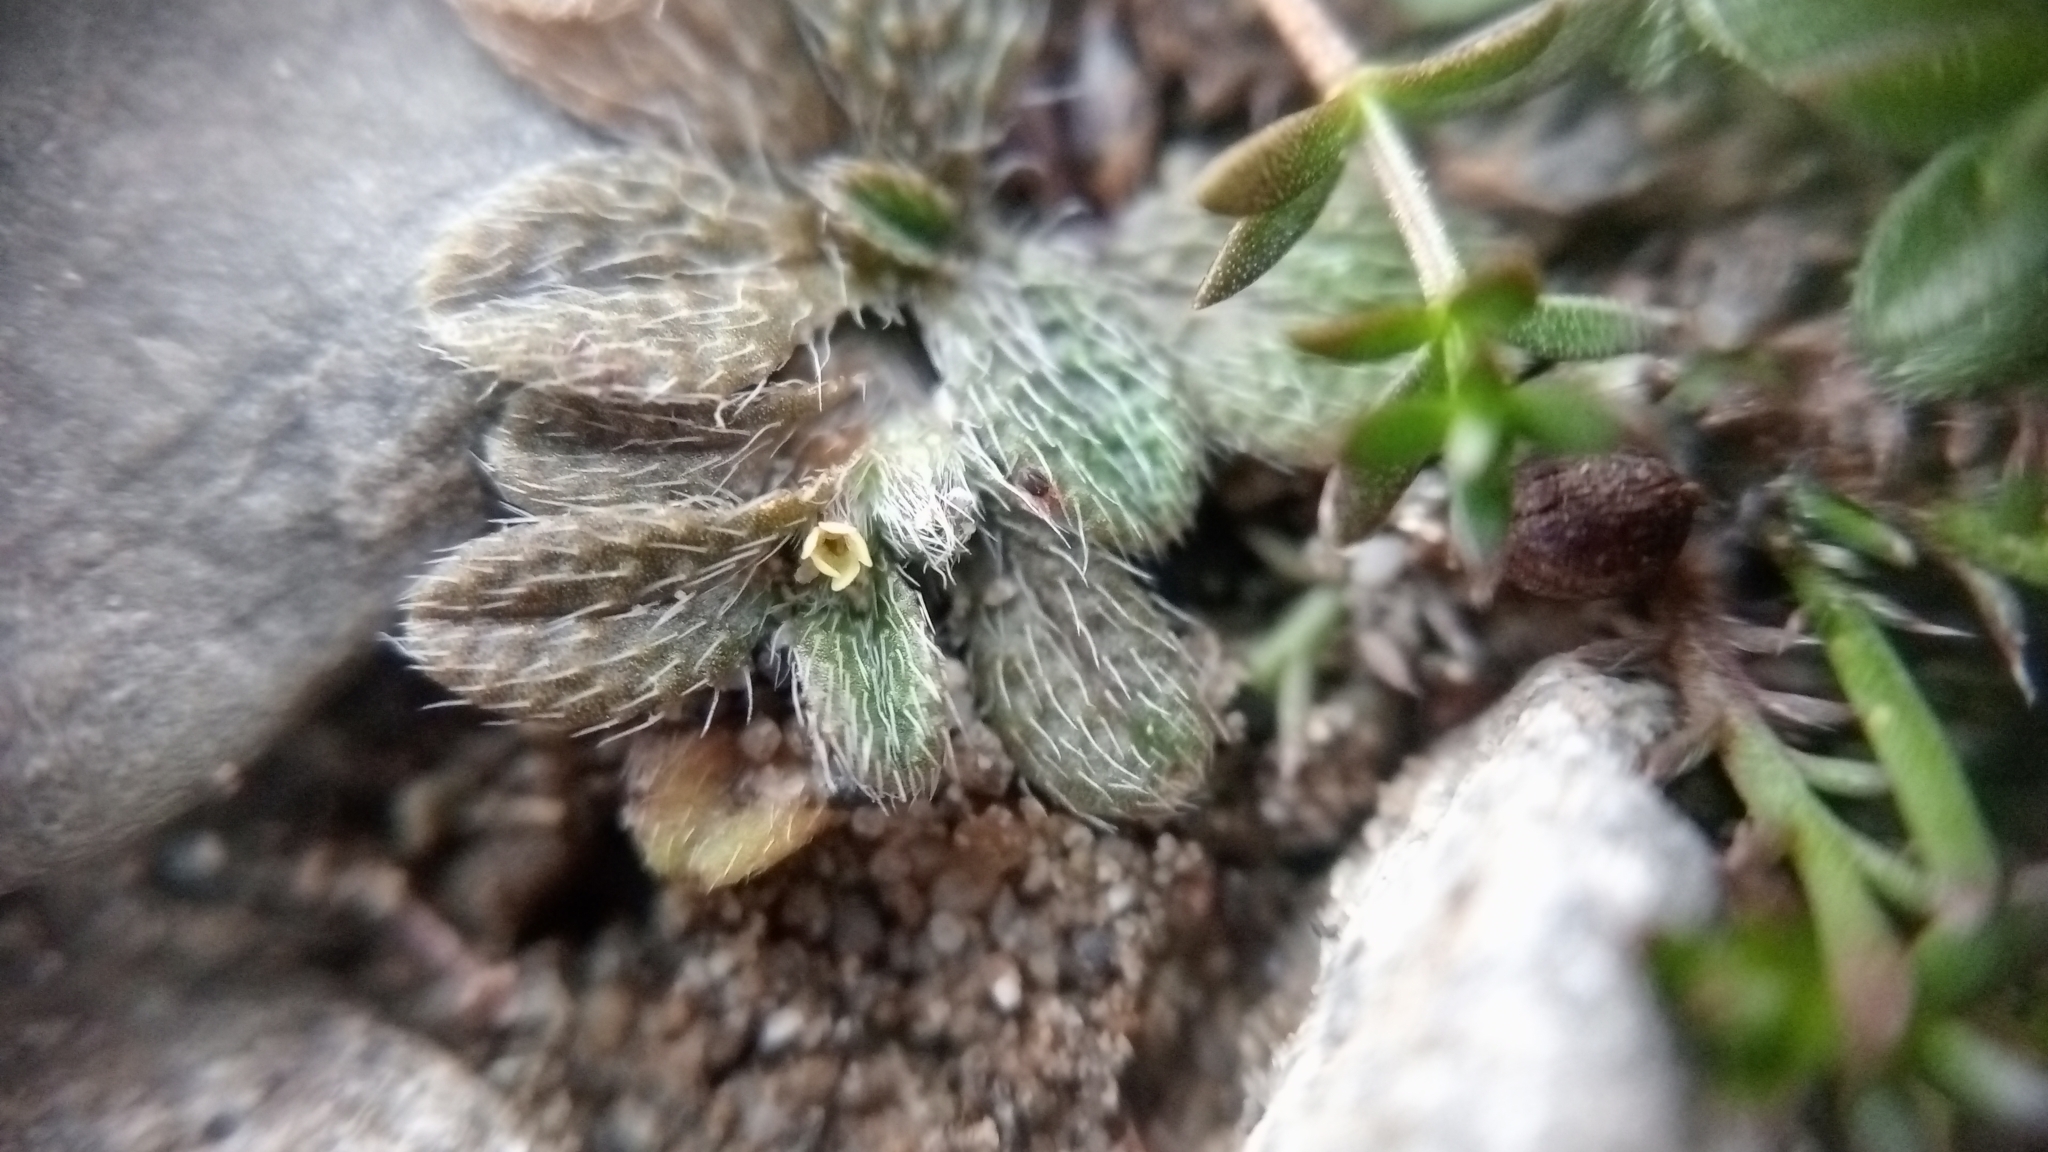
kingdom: Plantae
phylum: Tracheophyta
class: Magnoliopsida
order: Boraginales
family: Boraginaceae
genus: Myosotis
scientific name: Myosotis brevis
